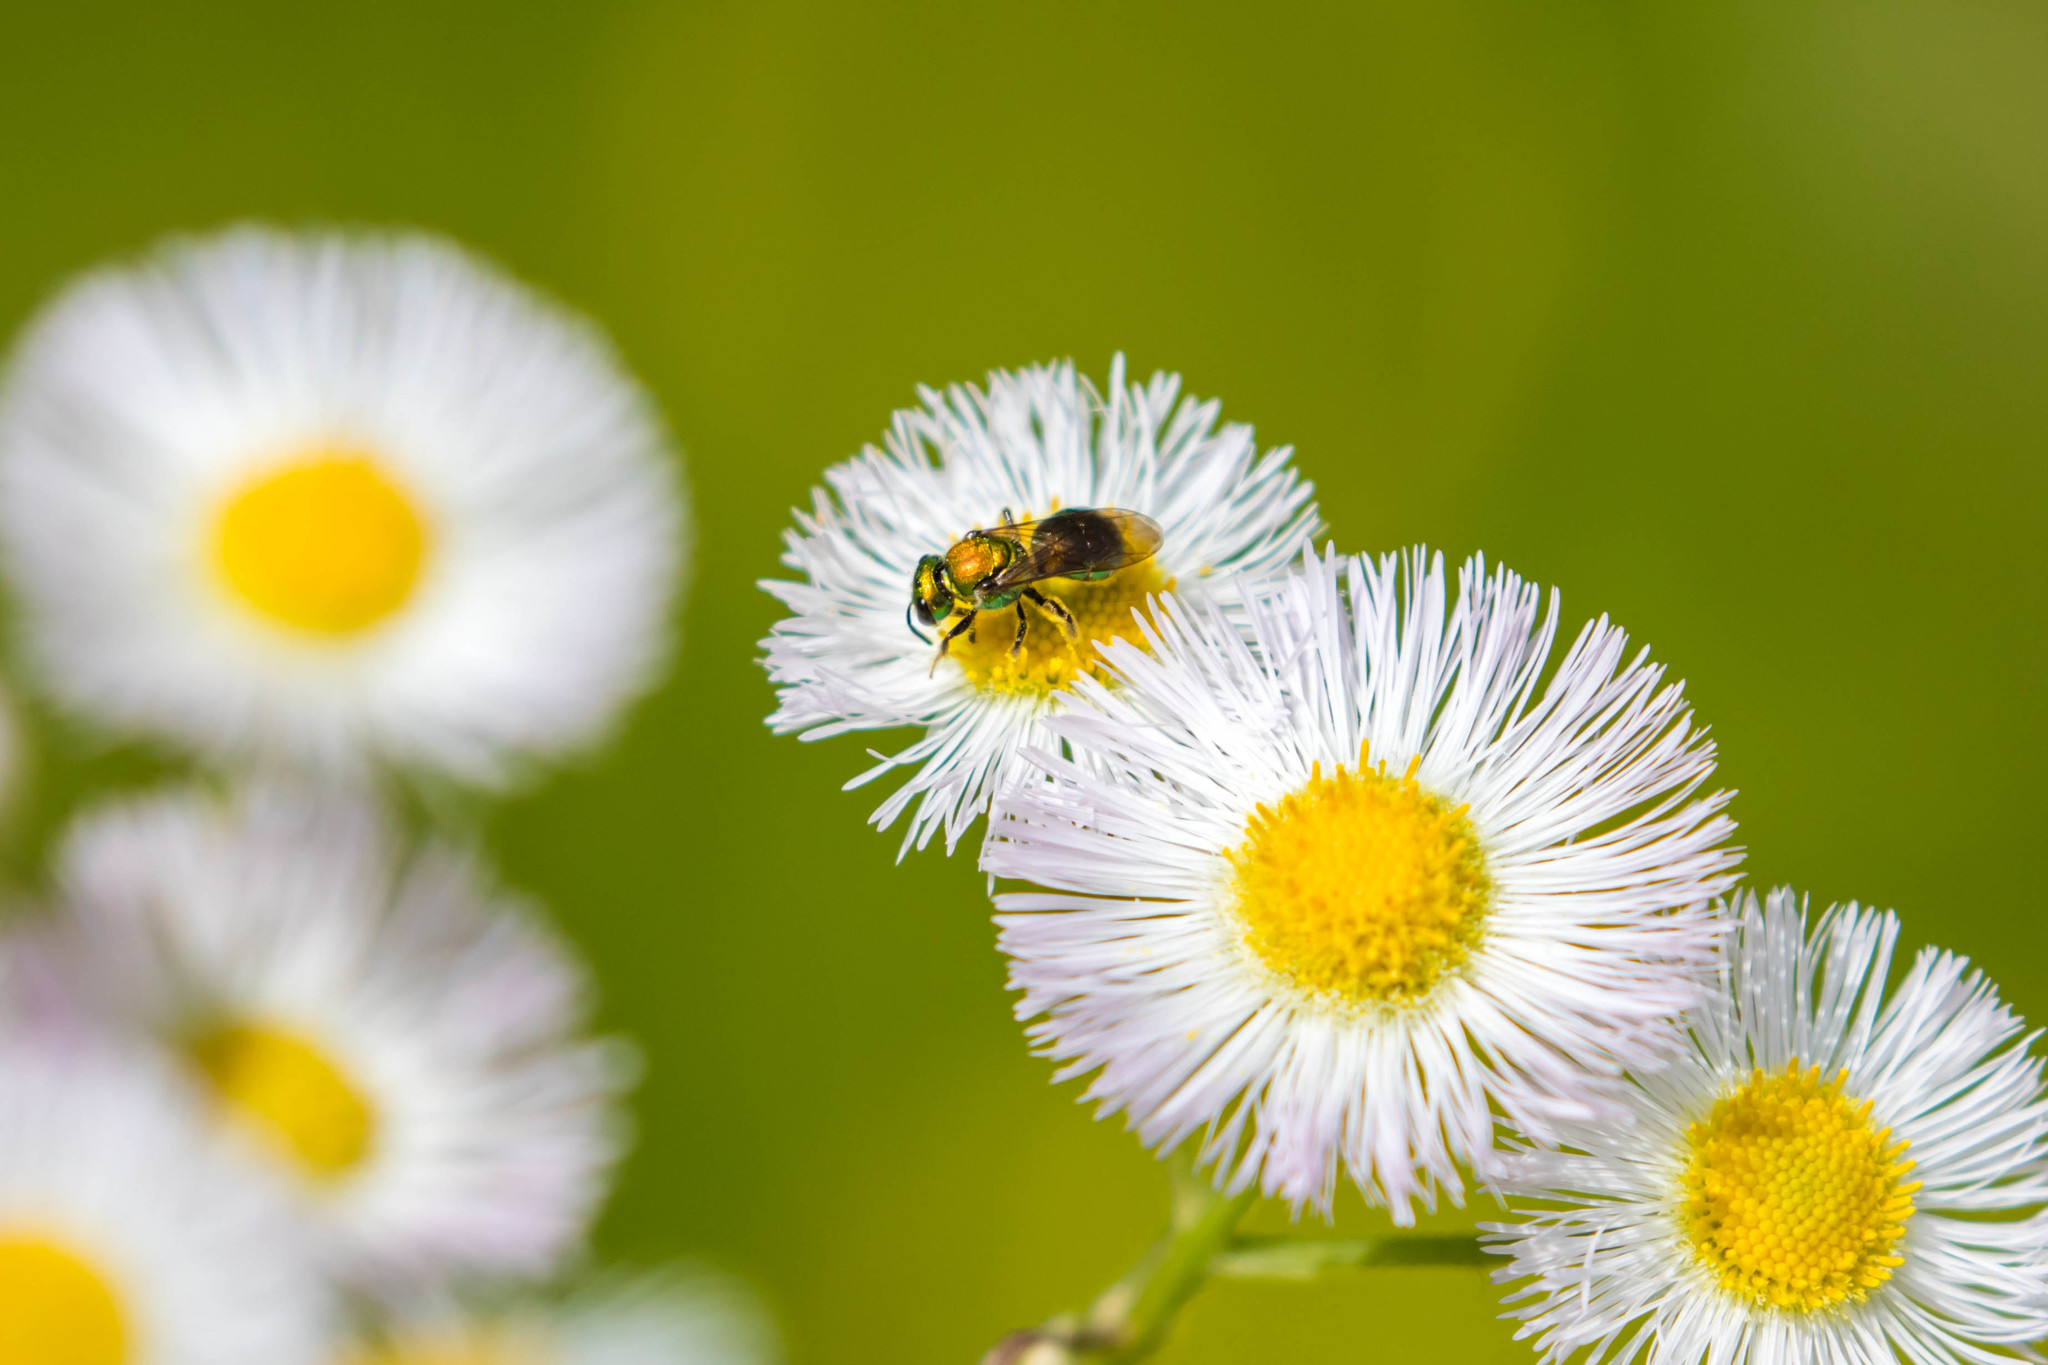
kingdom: Animalia
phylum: Arthropoda
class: Insecta
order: Hymenoptera
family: Halictidae
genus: Augochlora
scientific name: Augochlora pura
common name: Pure green sweat bee
